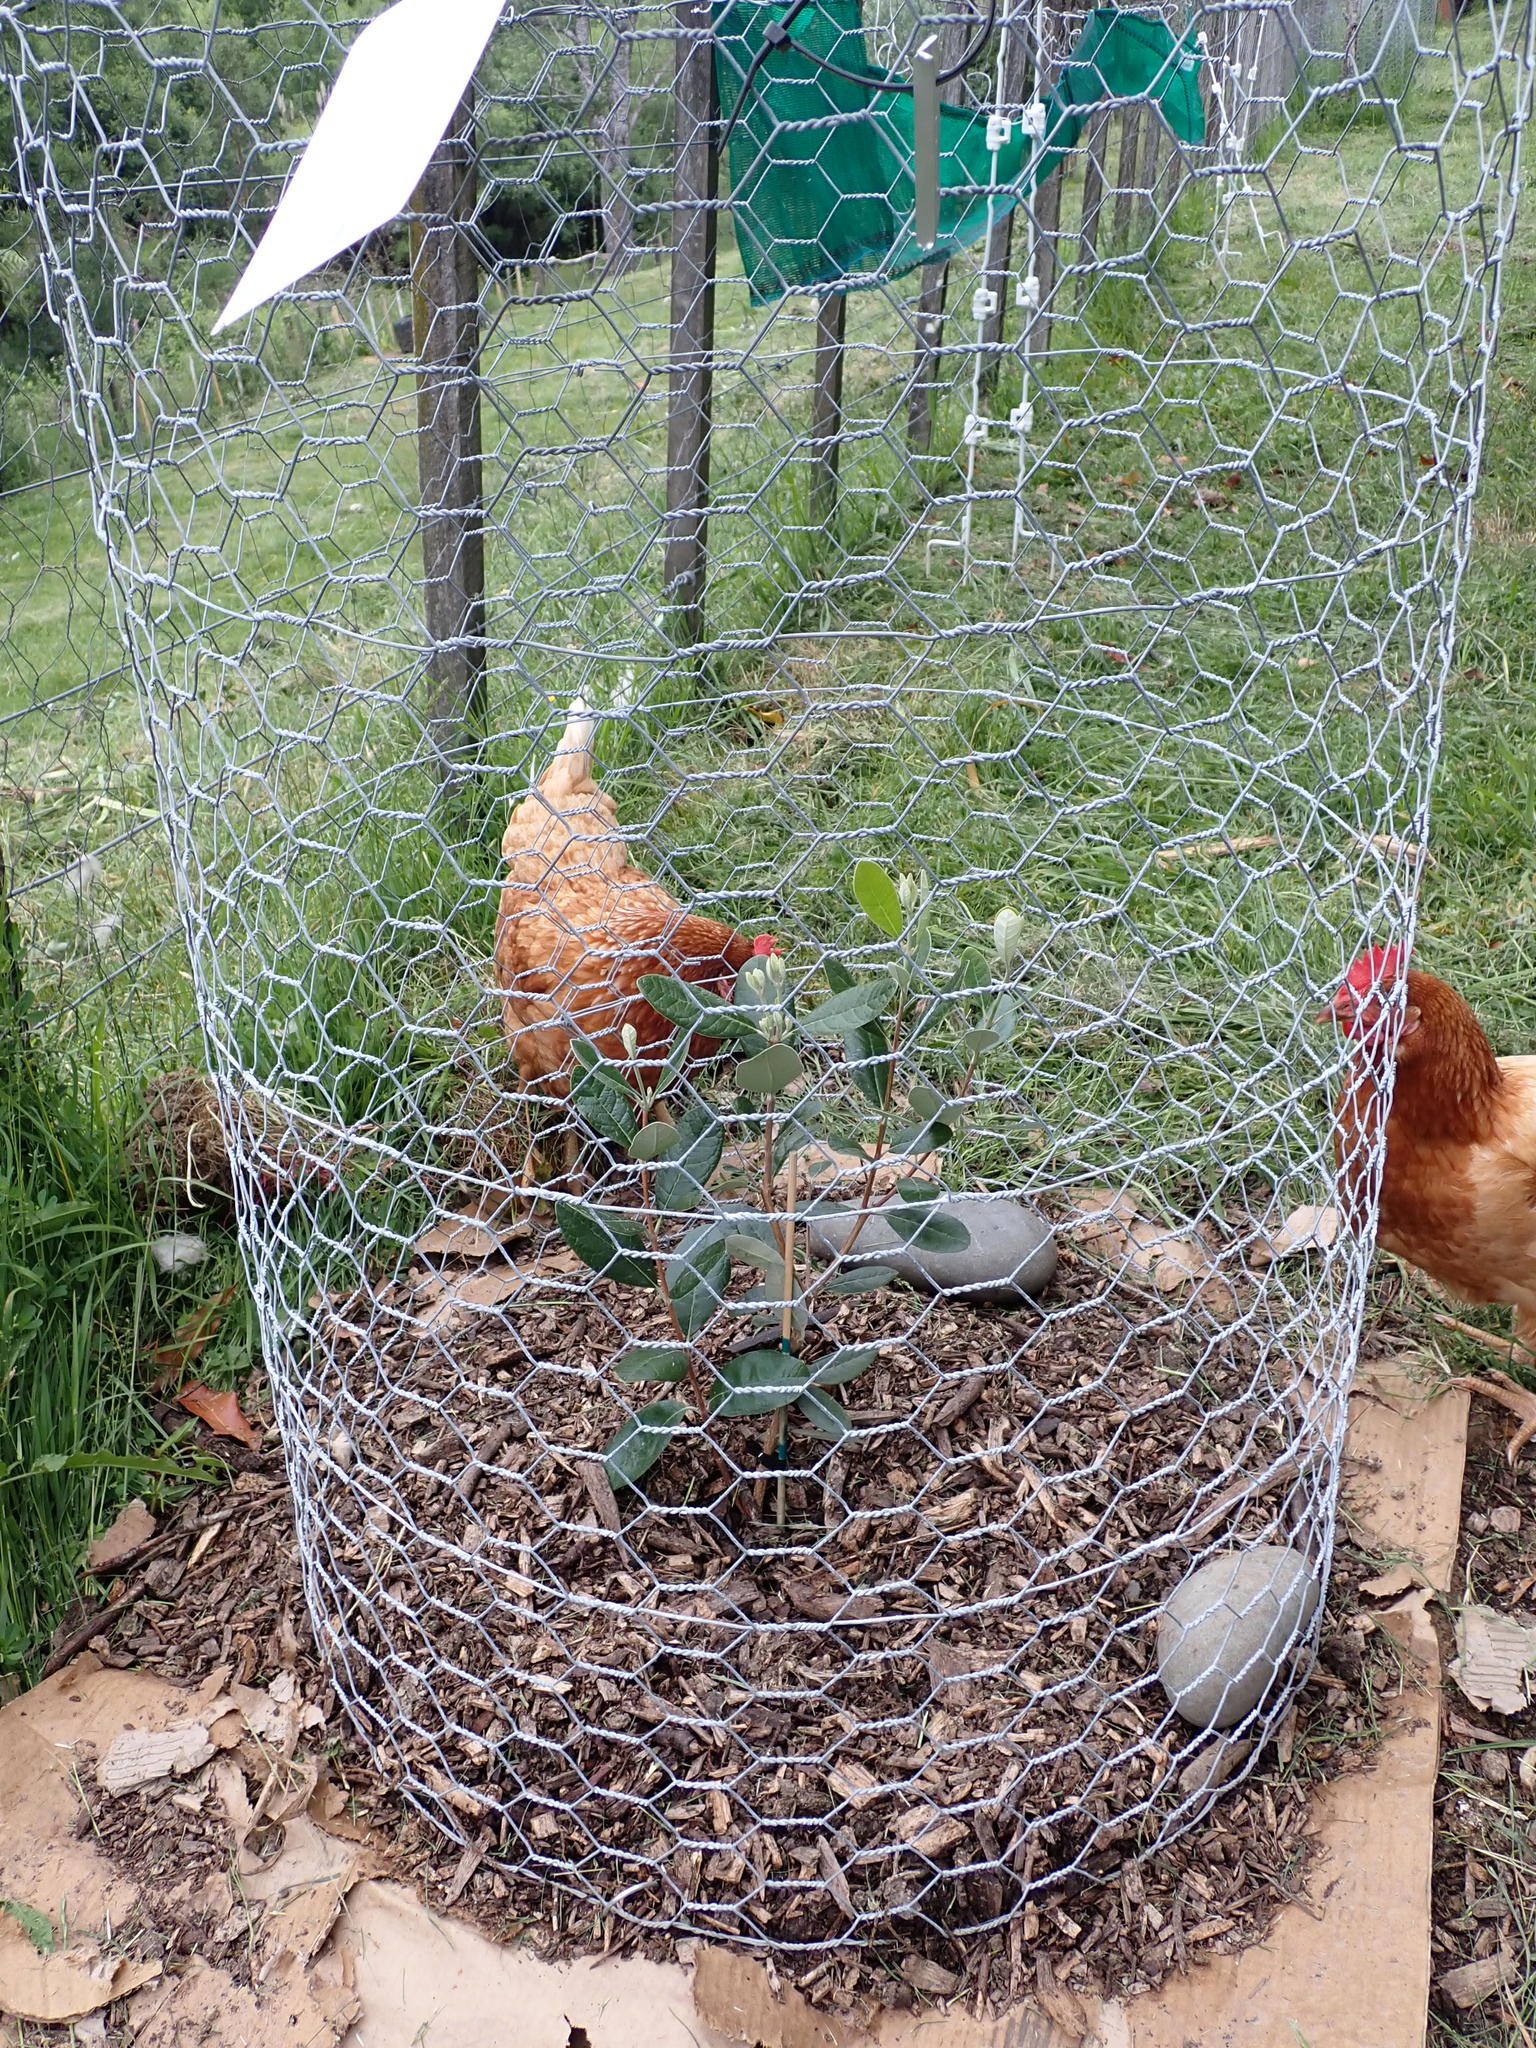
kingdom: Plantae
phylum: Tracheophyta
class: Magnoliopsida
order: Myrtales
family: Myrtaceae
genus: Feijoa
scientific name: Feijoa sellowiana
